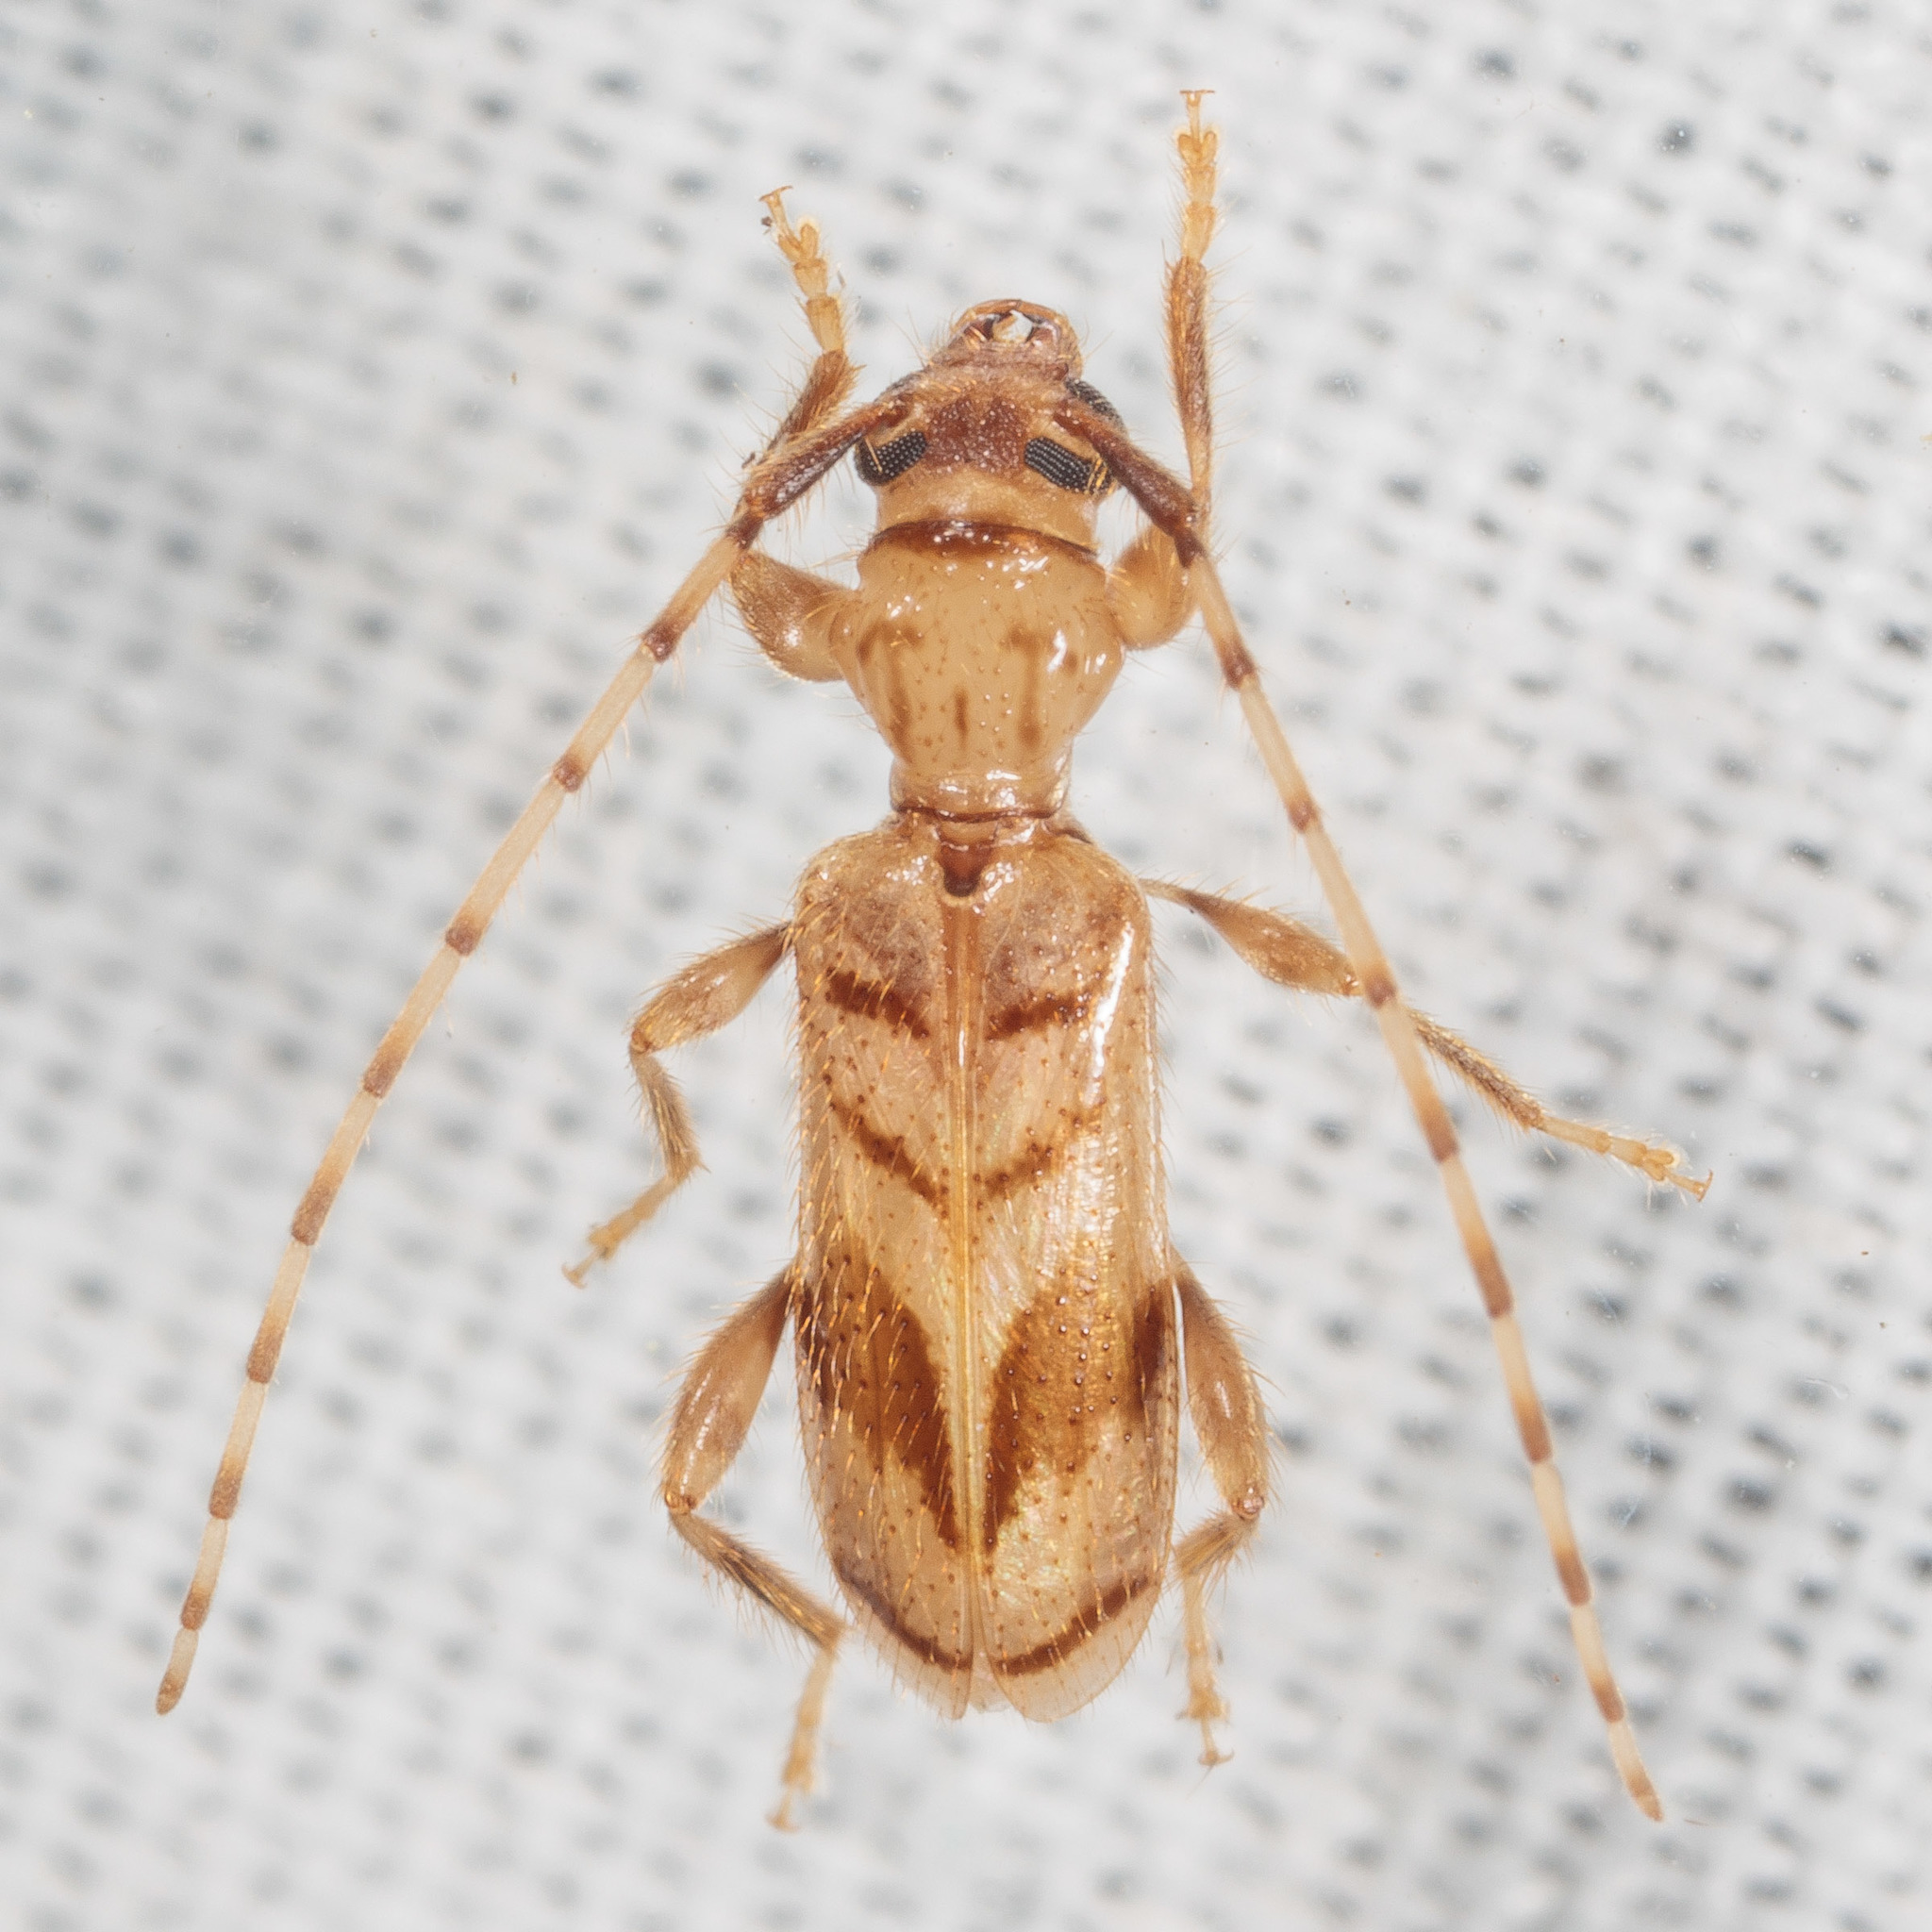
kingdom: Animalia
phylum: Arthropoda
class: Insecta
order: Coleoptera
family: Cerambycidae
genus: Obrium
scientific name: Obrium maculatum
